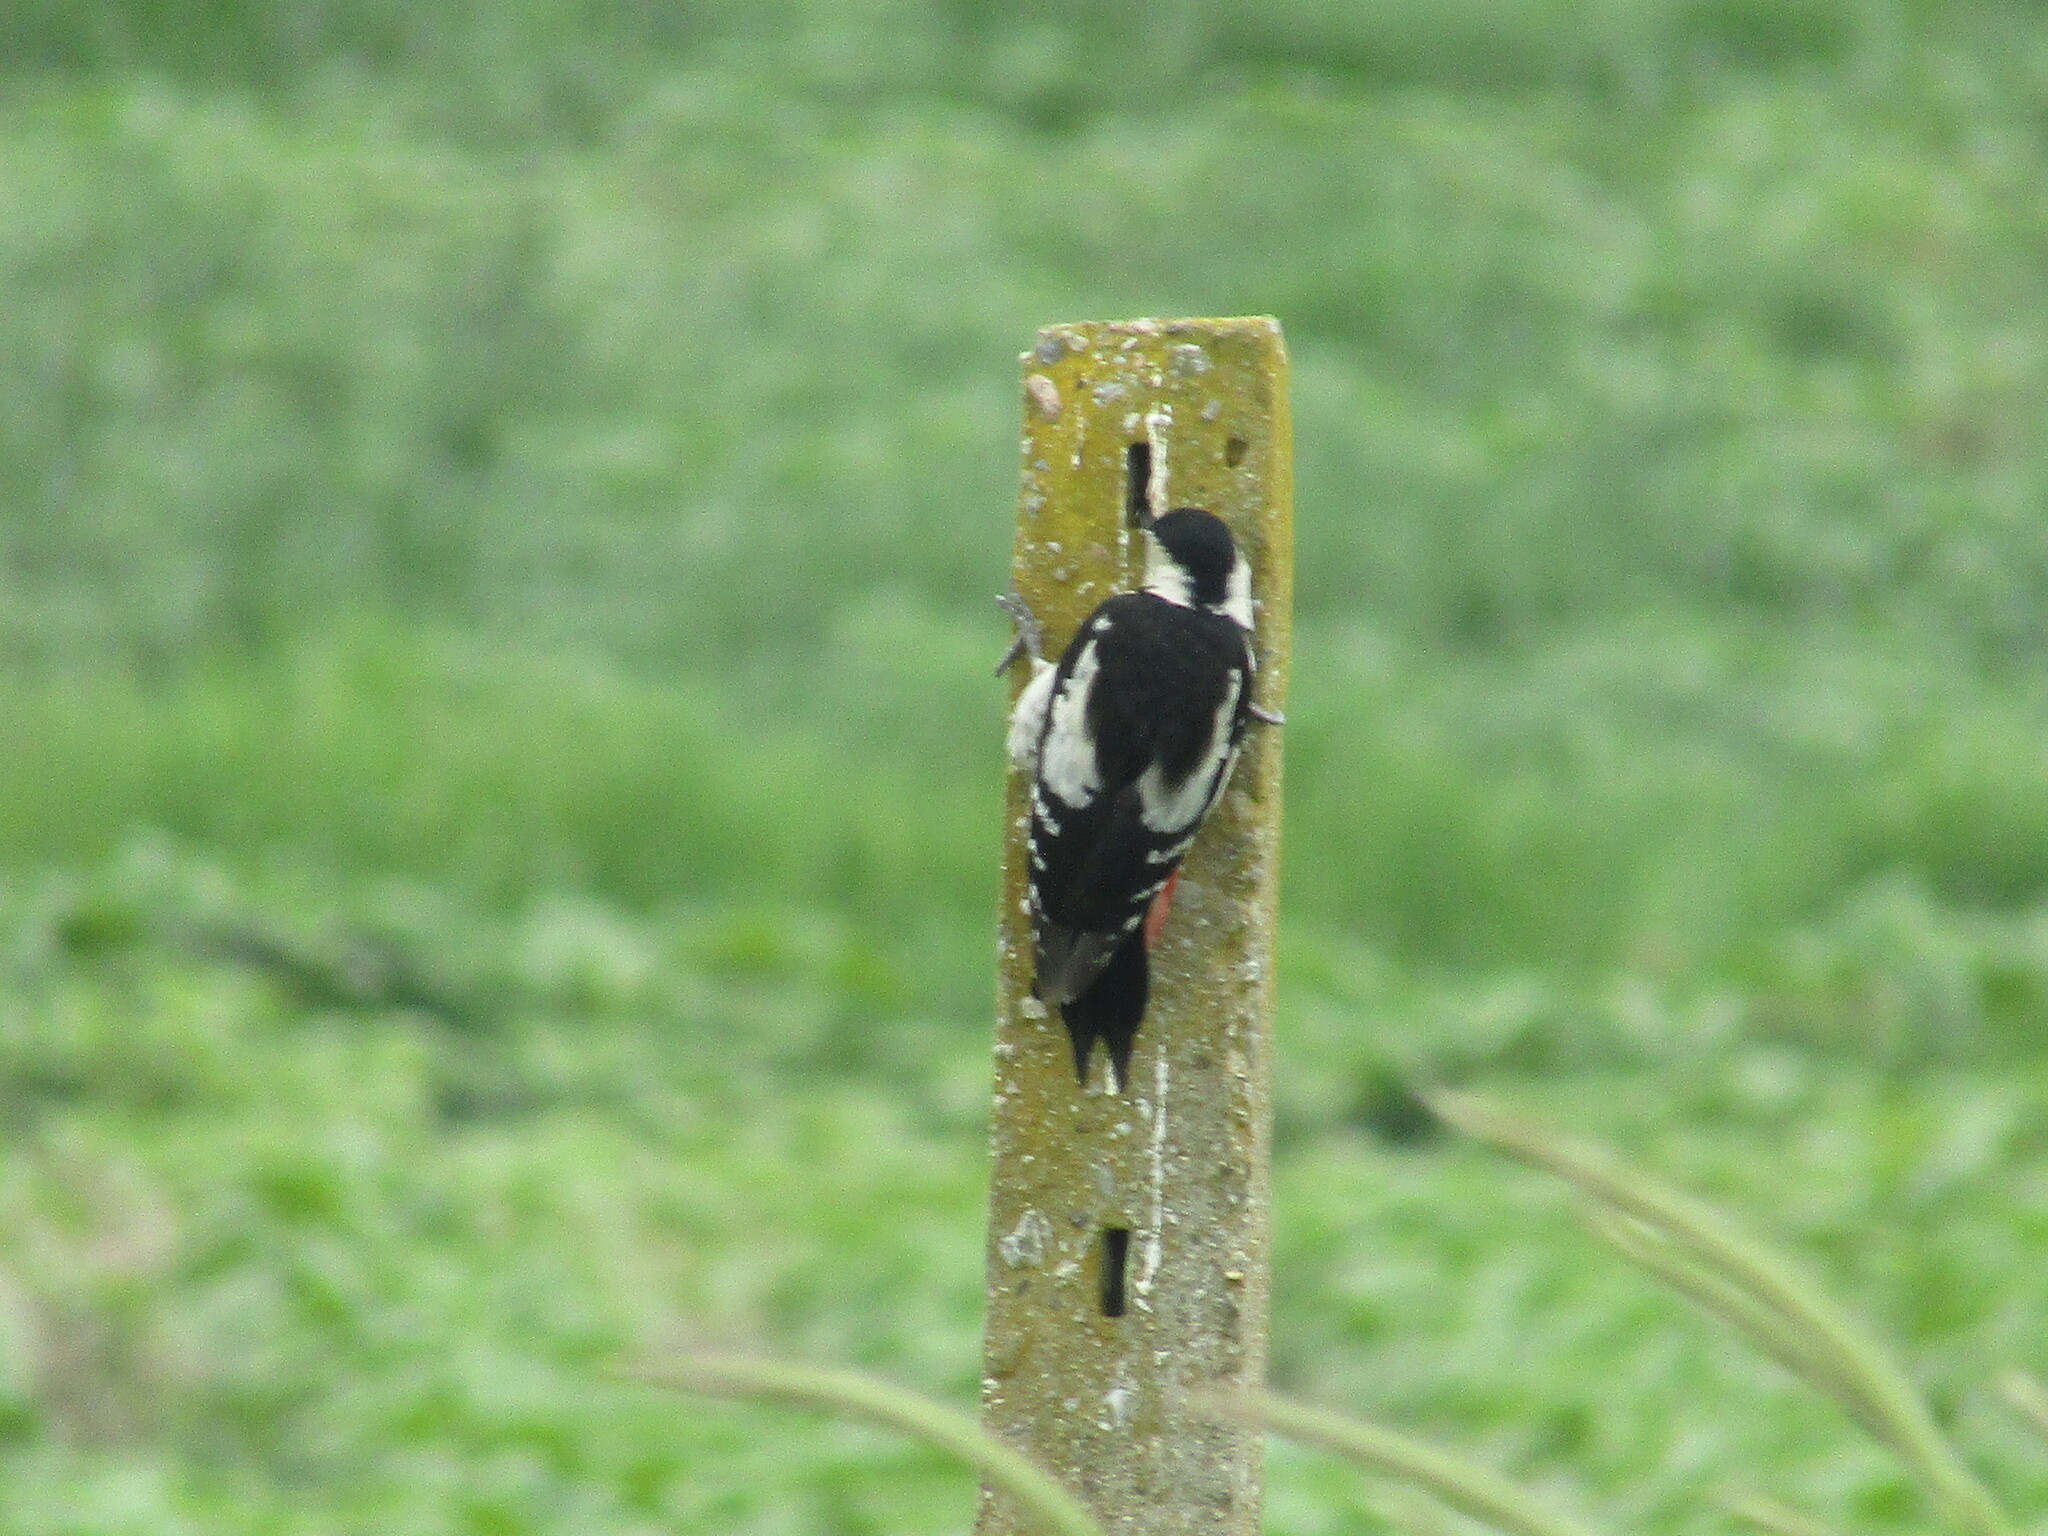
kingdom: Animalia
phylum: Chordata
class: Aves
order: Piciformes
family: Picidae
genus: Dendrocopos
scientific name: Dendrocopos syriacus
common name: Syrian woodpecker
